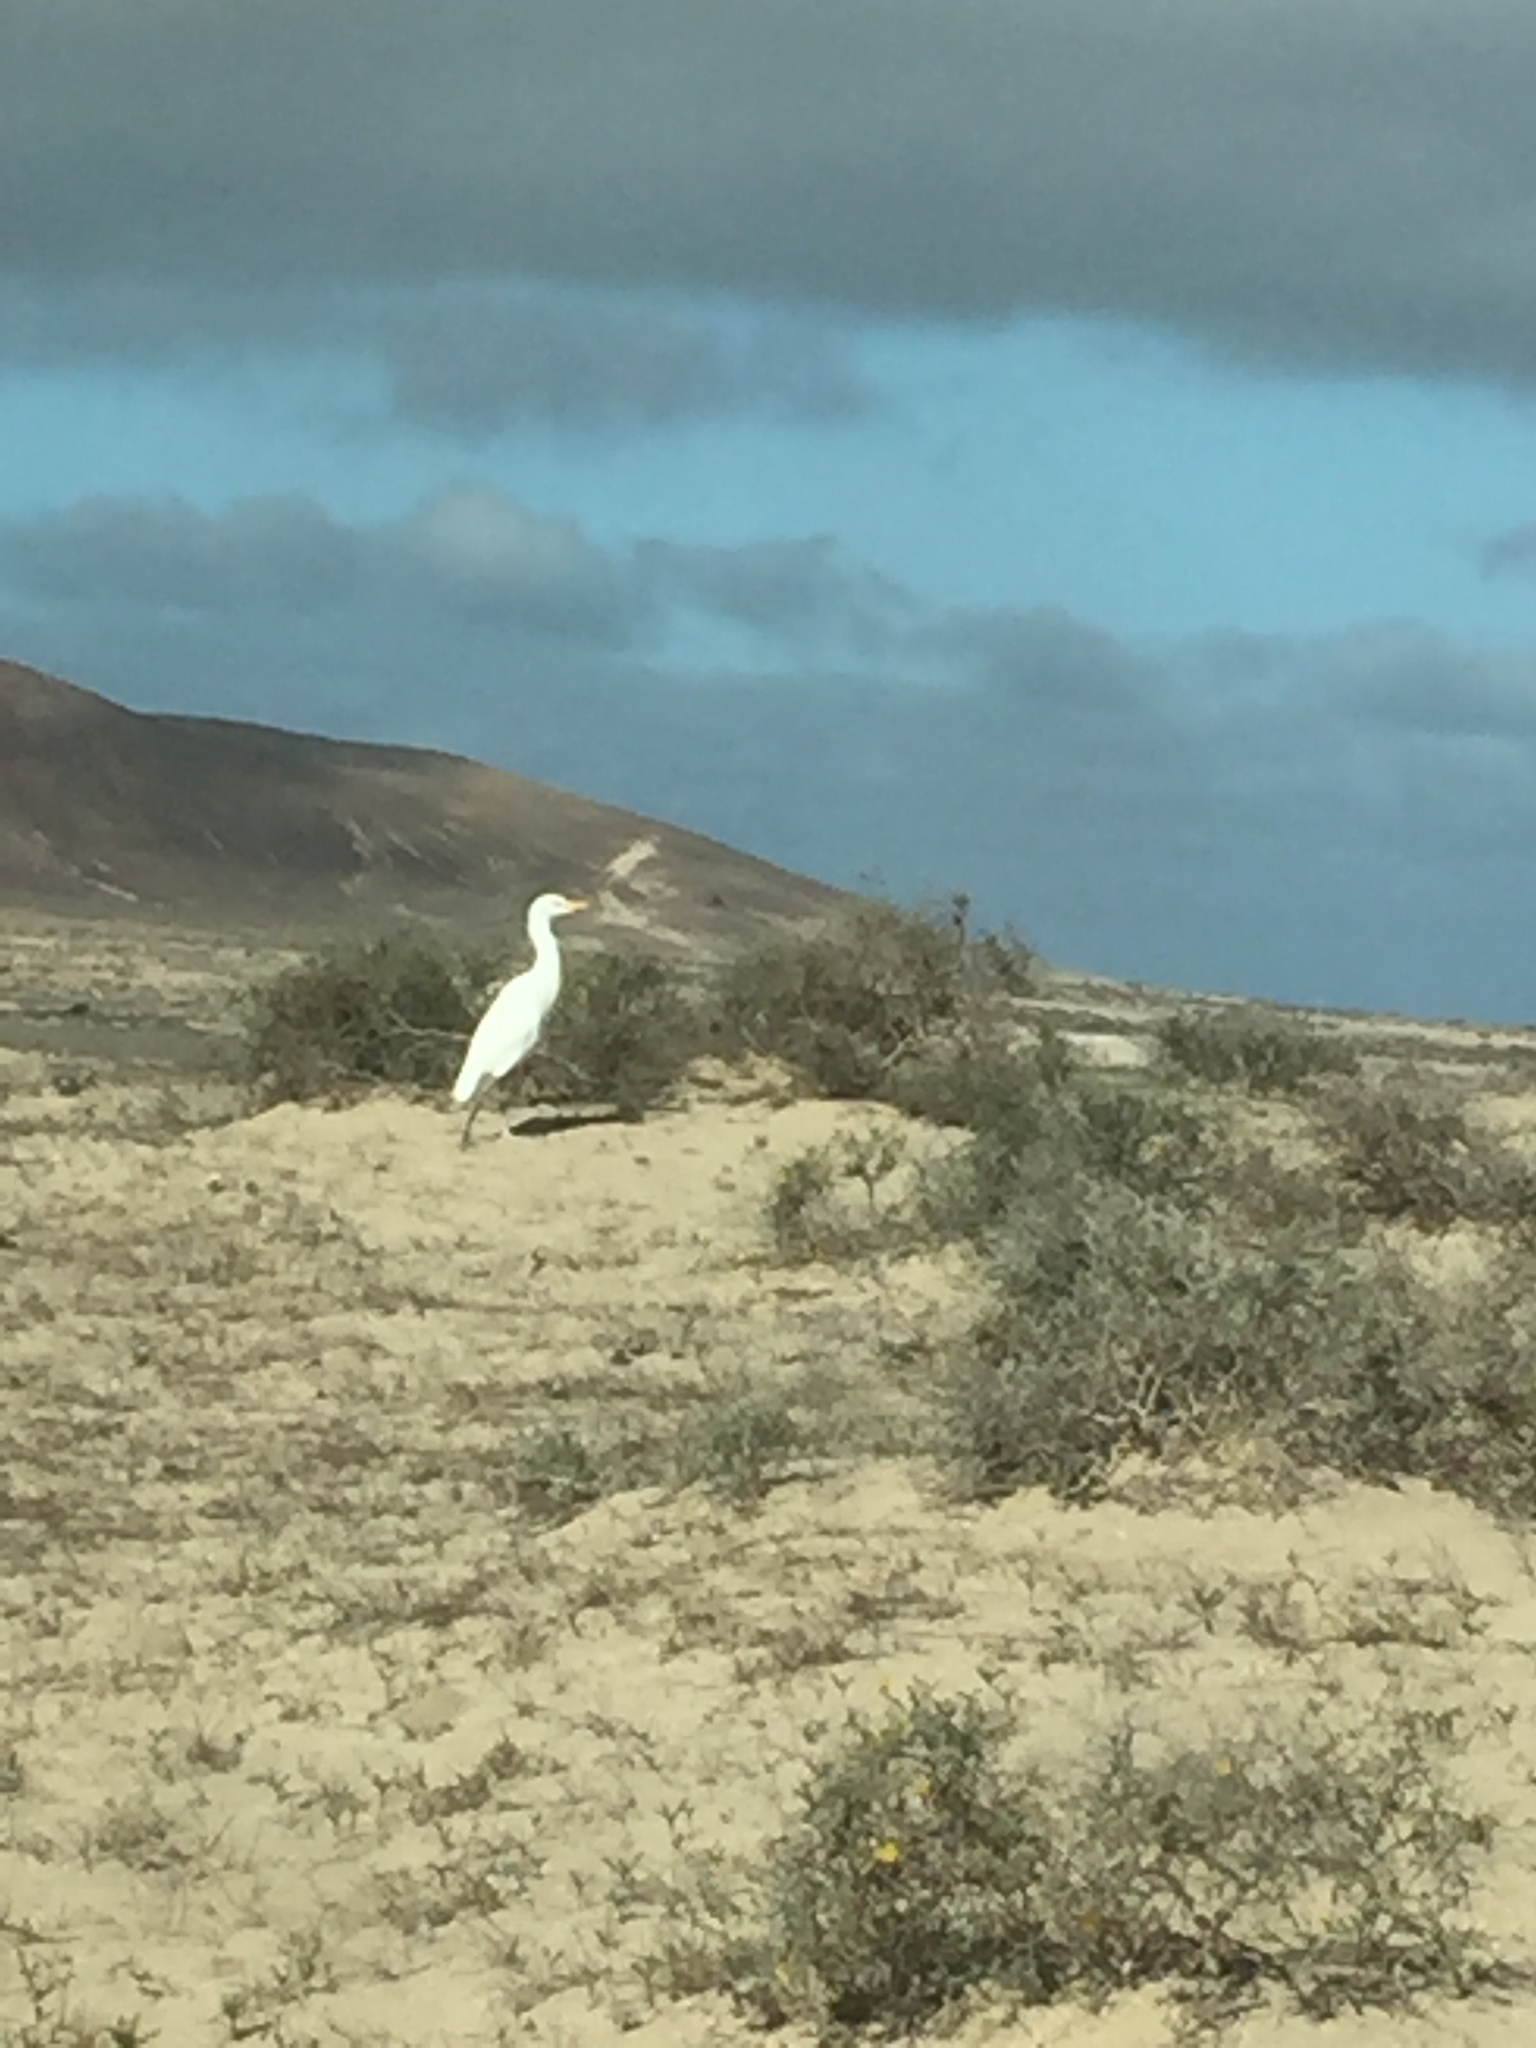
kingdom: Animalia
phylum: Chordata
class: Aves
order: Pelecaniformes
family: Ardeidae
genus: Bubulcus
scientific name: Bubulcus ibis
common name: Cattle egret
